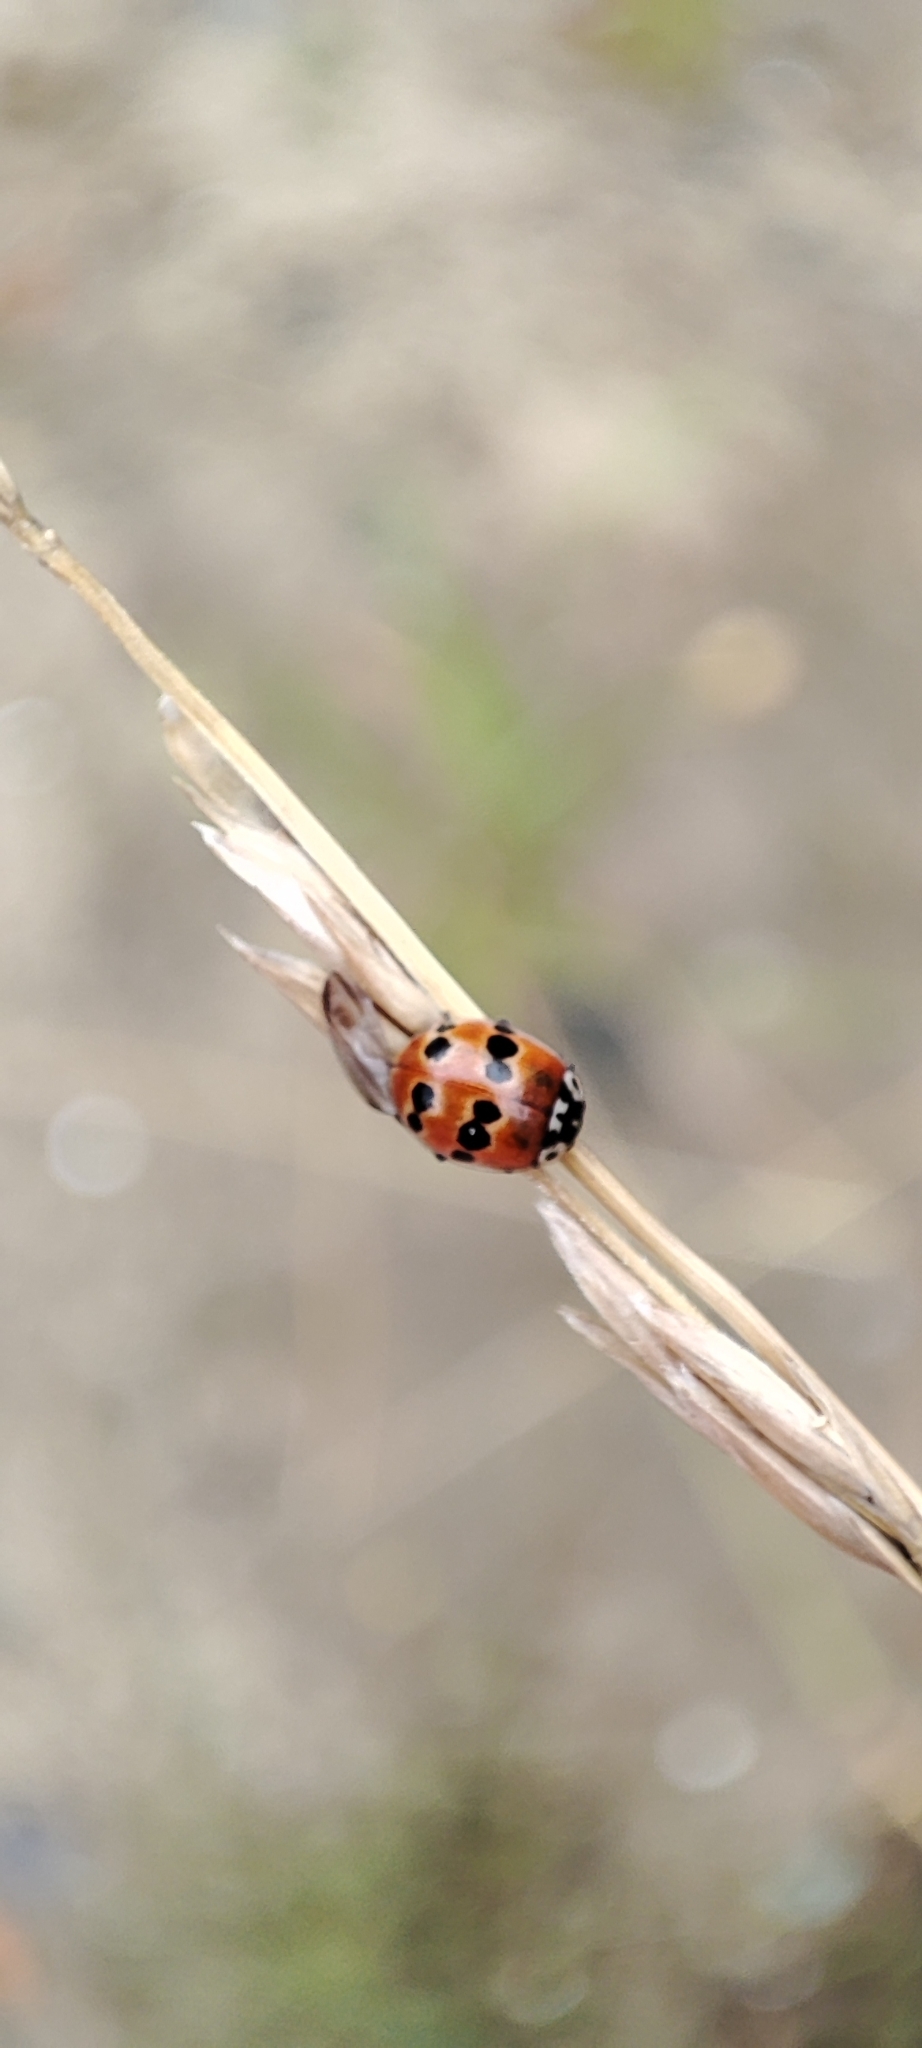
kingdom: Animalia
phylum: Arthropoda
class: Insecta
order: Coleoptera
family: Coccinellidae
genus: Adalia
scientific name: Adalia bipunctata
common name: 2-spot ladybird
